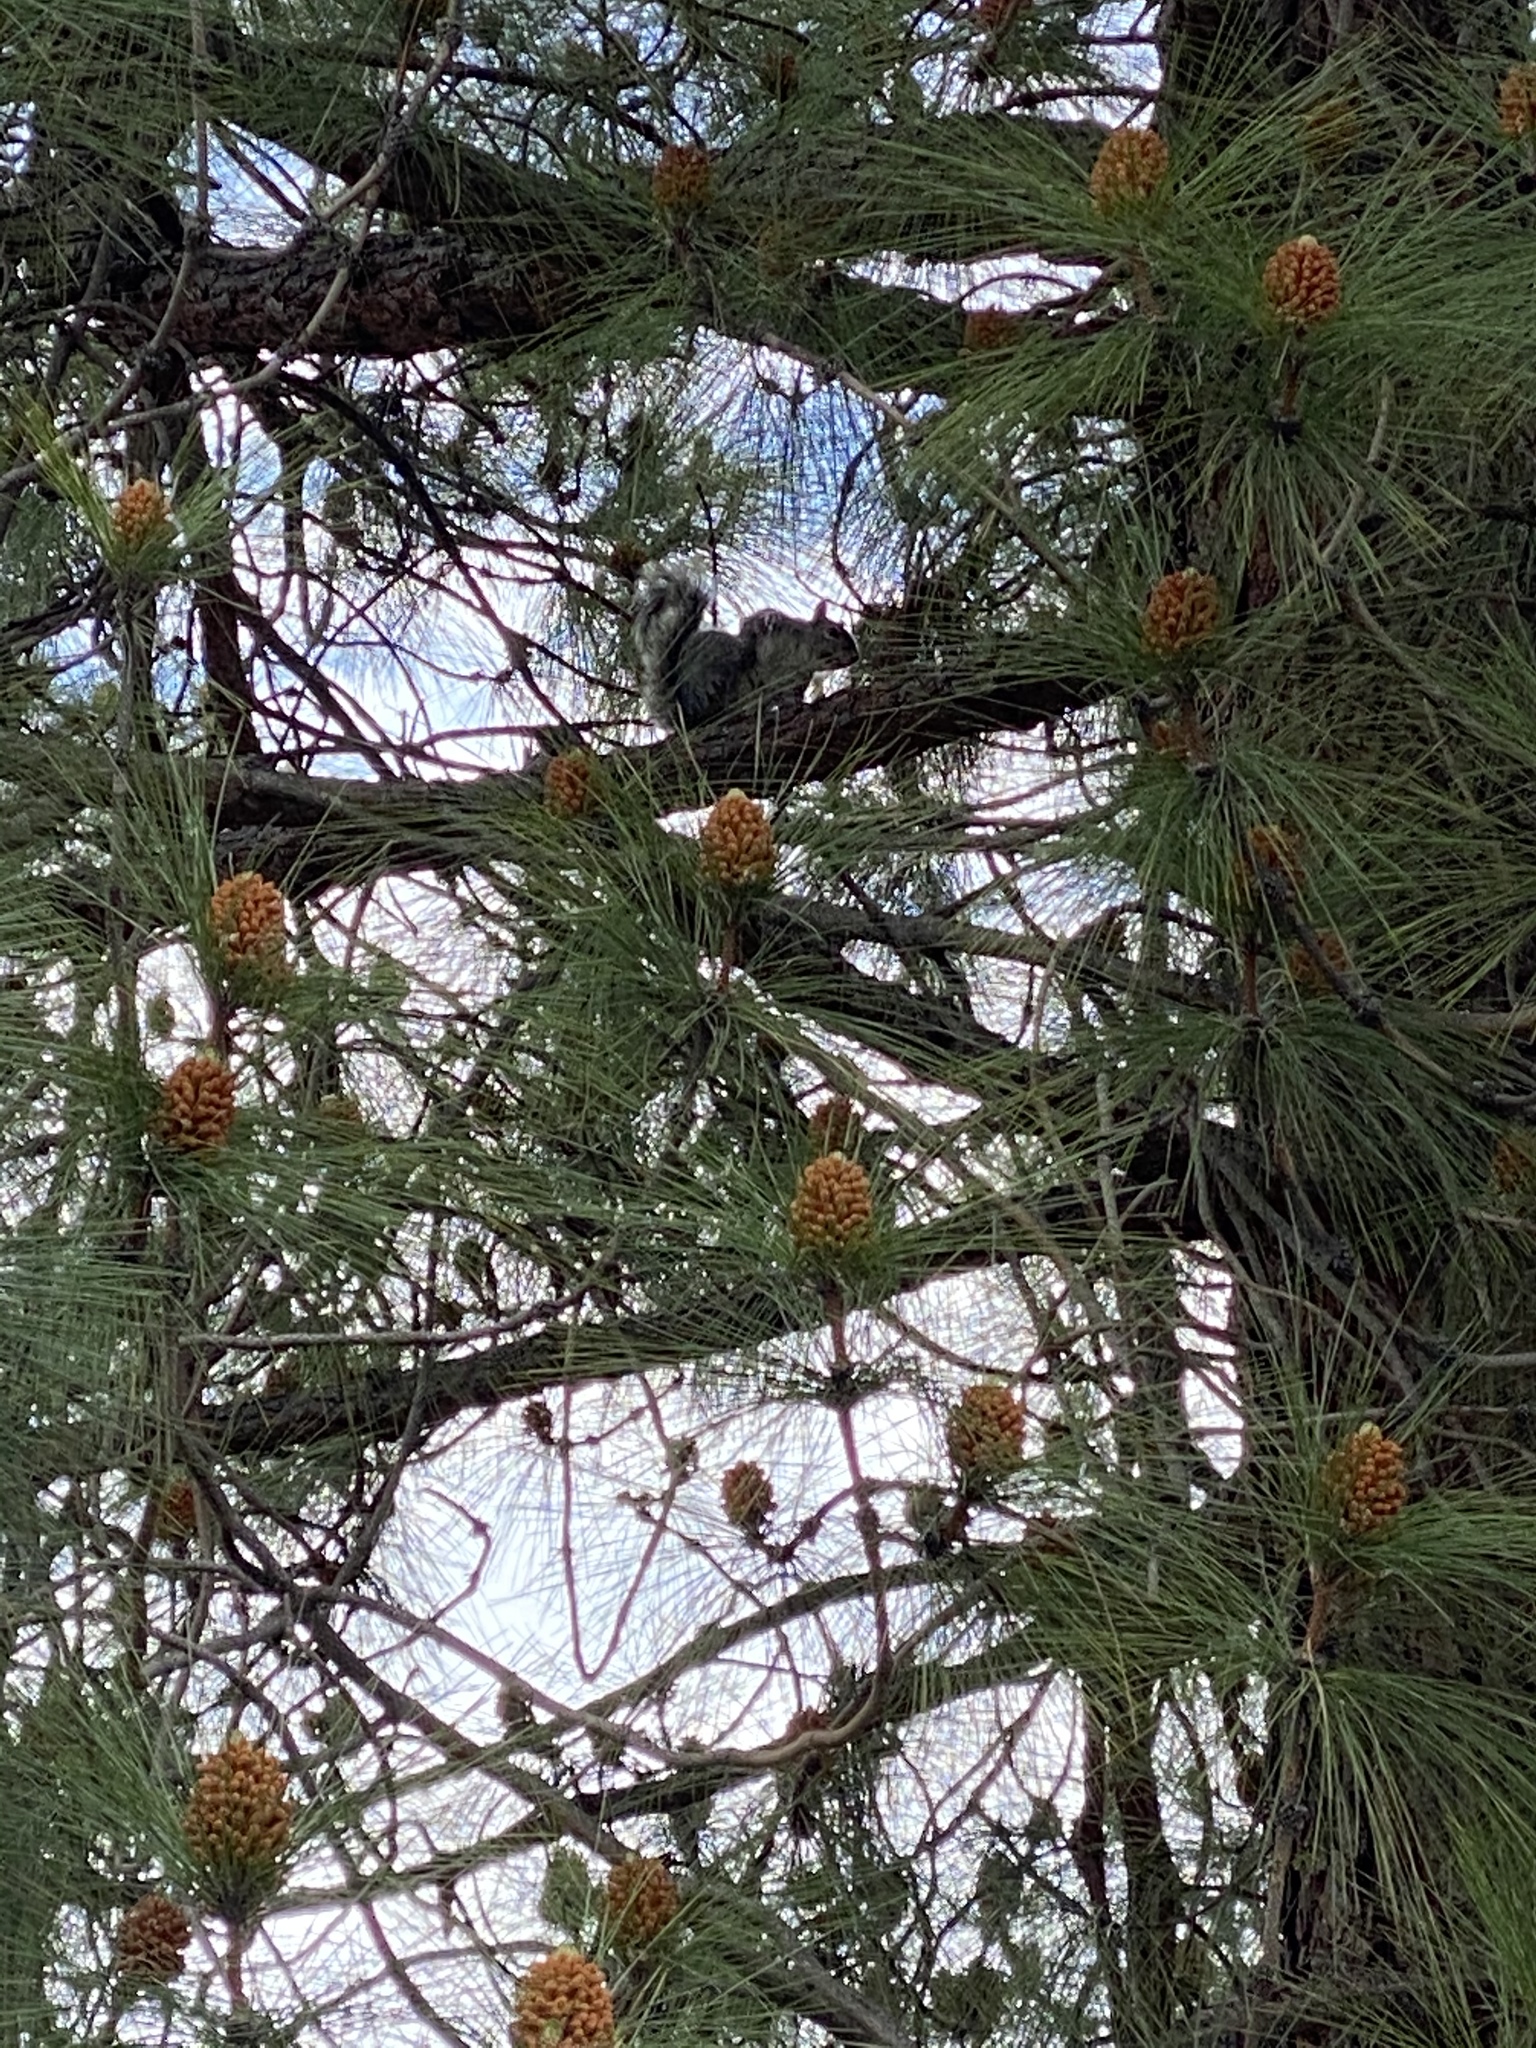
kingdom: Animalia
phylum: Chordata
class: Mammalia
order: Rodentia
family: Sciuridae
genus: Sciurus
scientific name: Sciurus carolinensis
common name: Eastern gray squirrel
